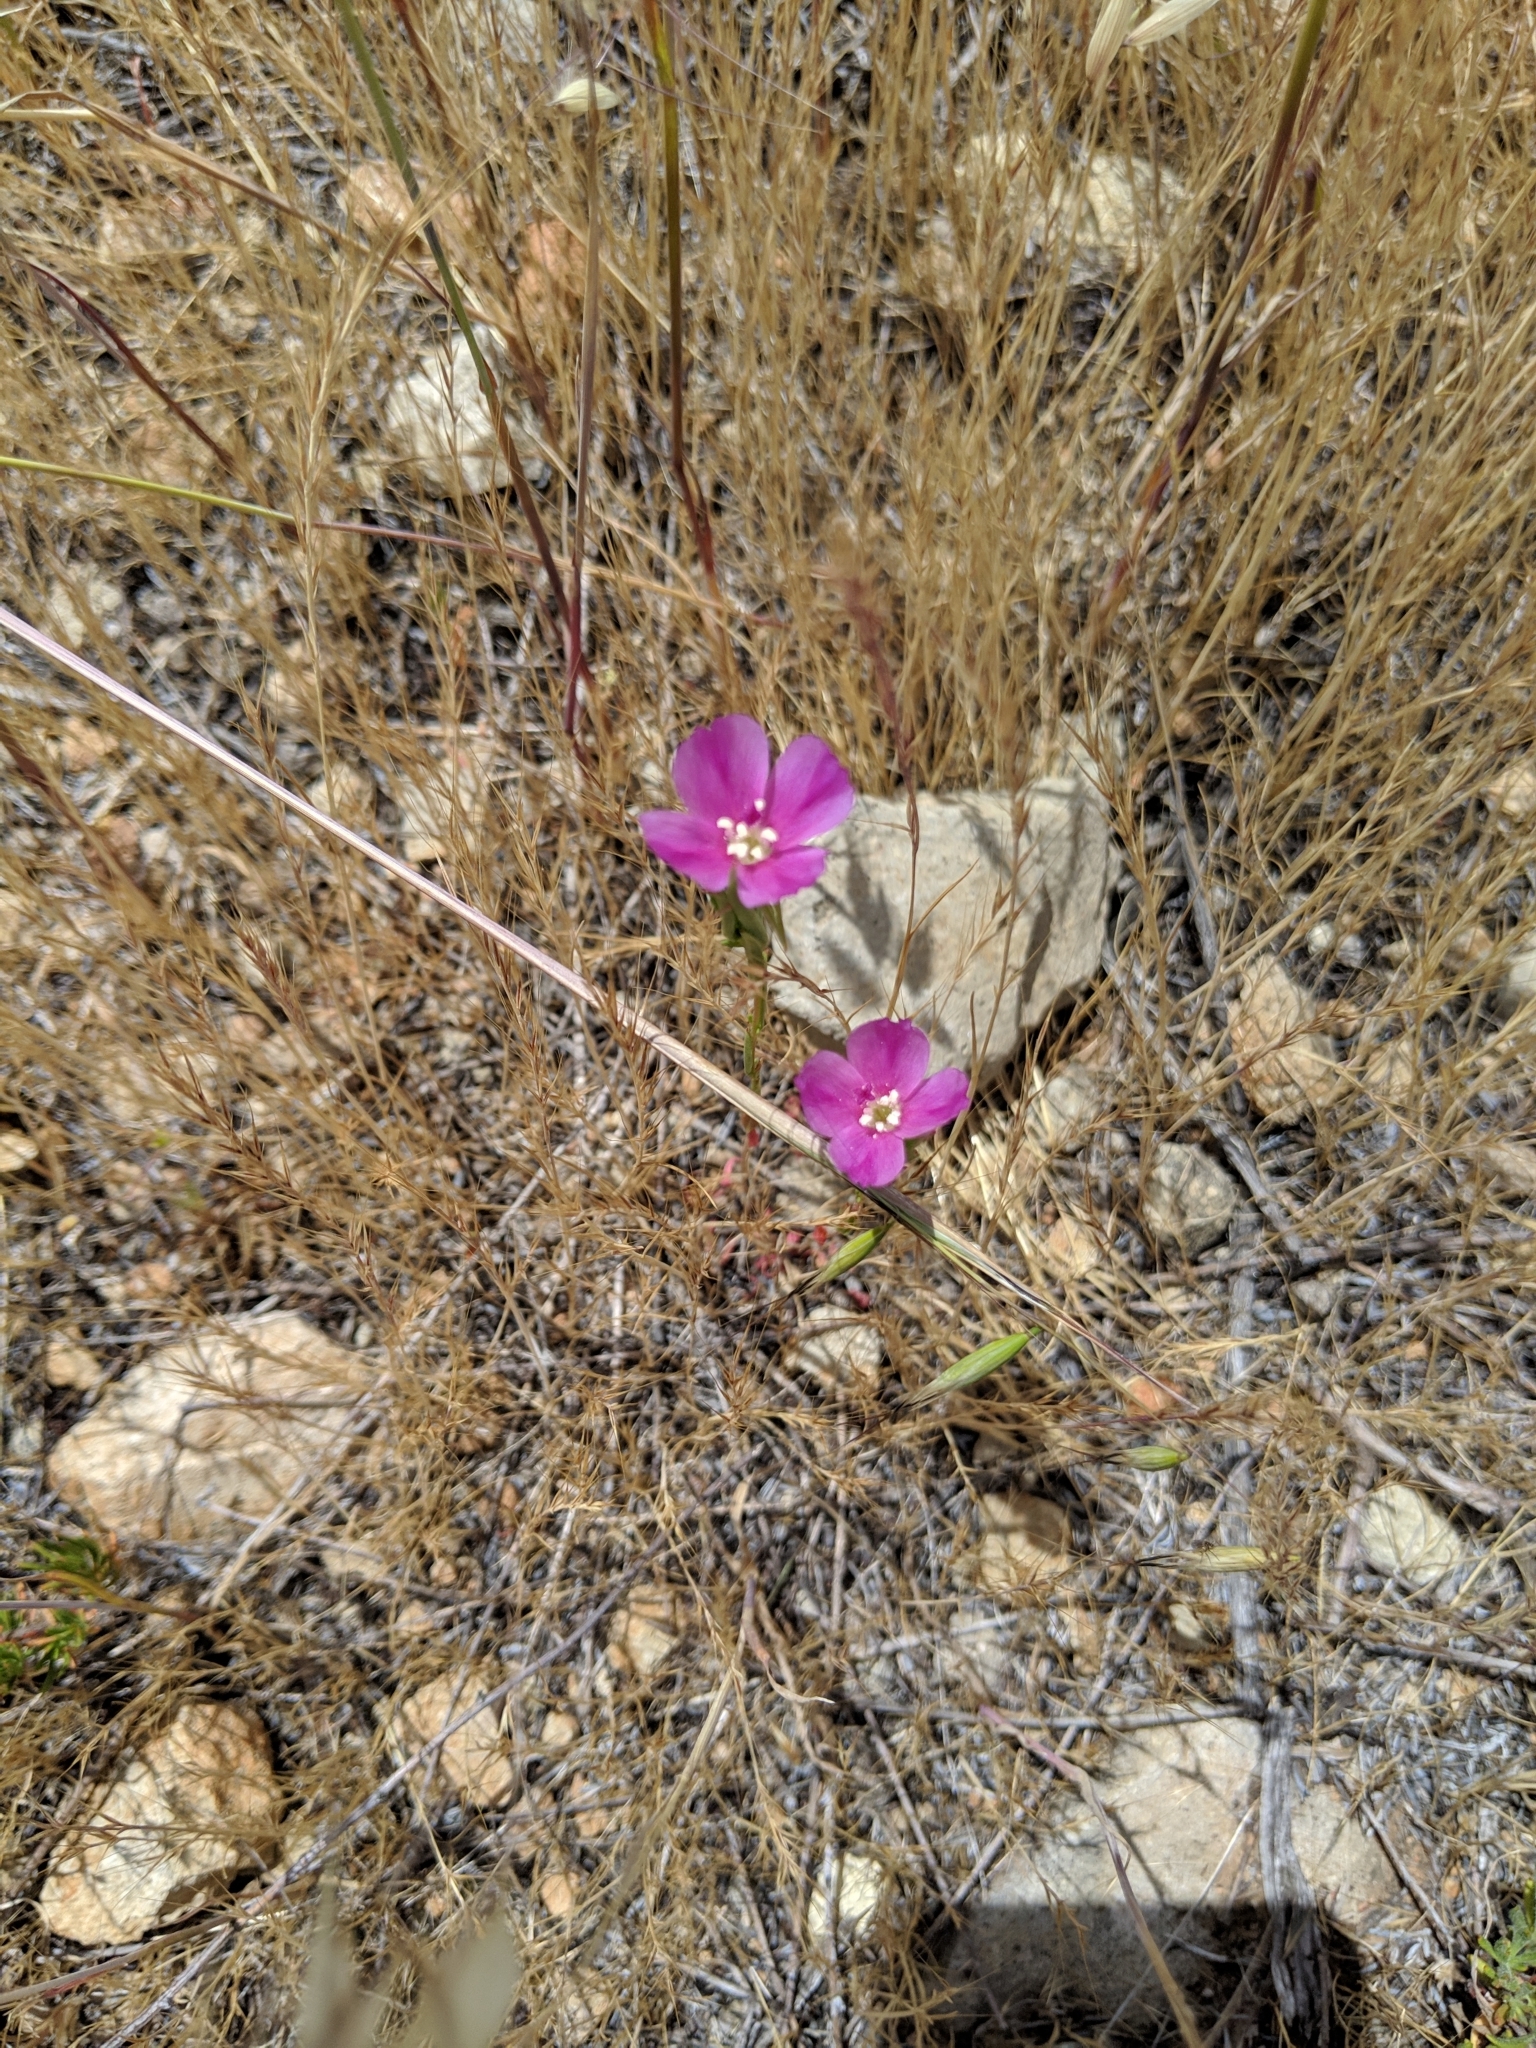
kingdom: Plantae
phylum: Tracheophyta
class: Magnoliopsida
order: Myrtales
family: Onagraceae
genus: Clarkia
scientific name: Clarkia purpurea
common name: Purple clarkia
